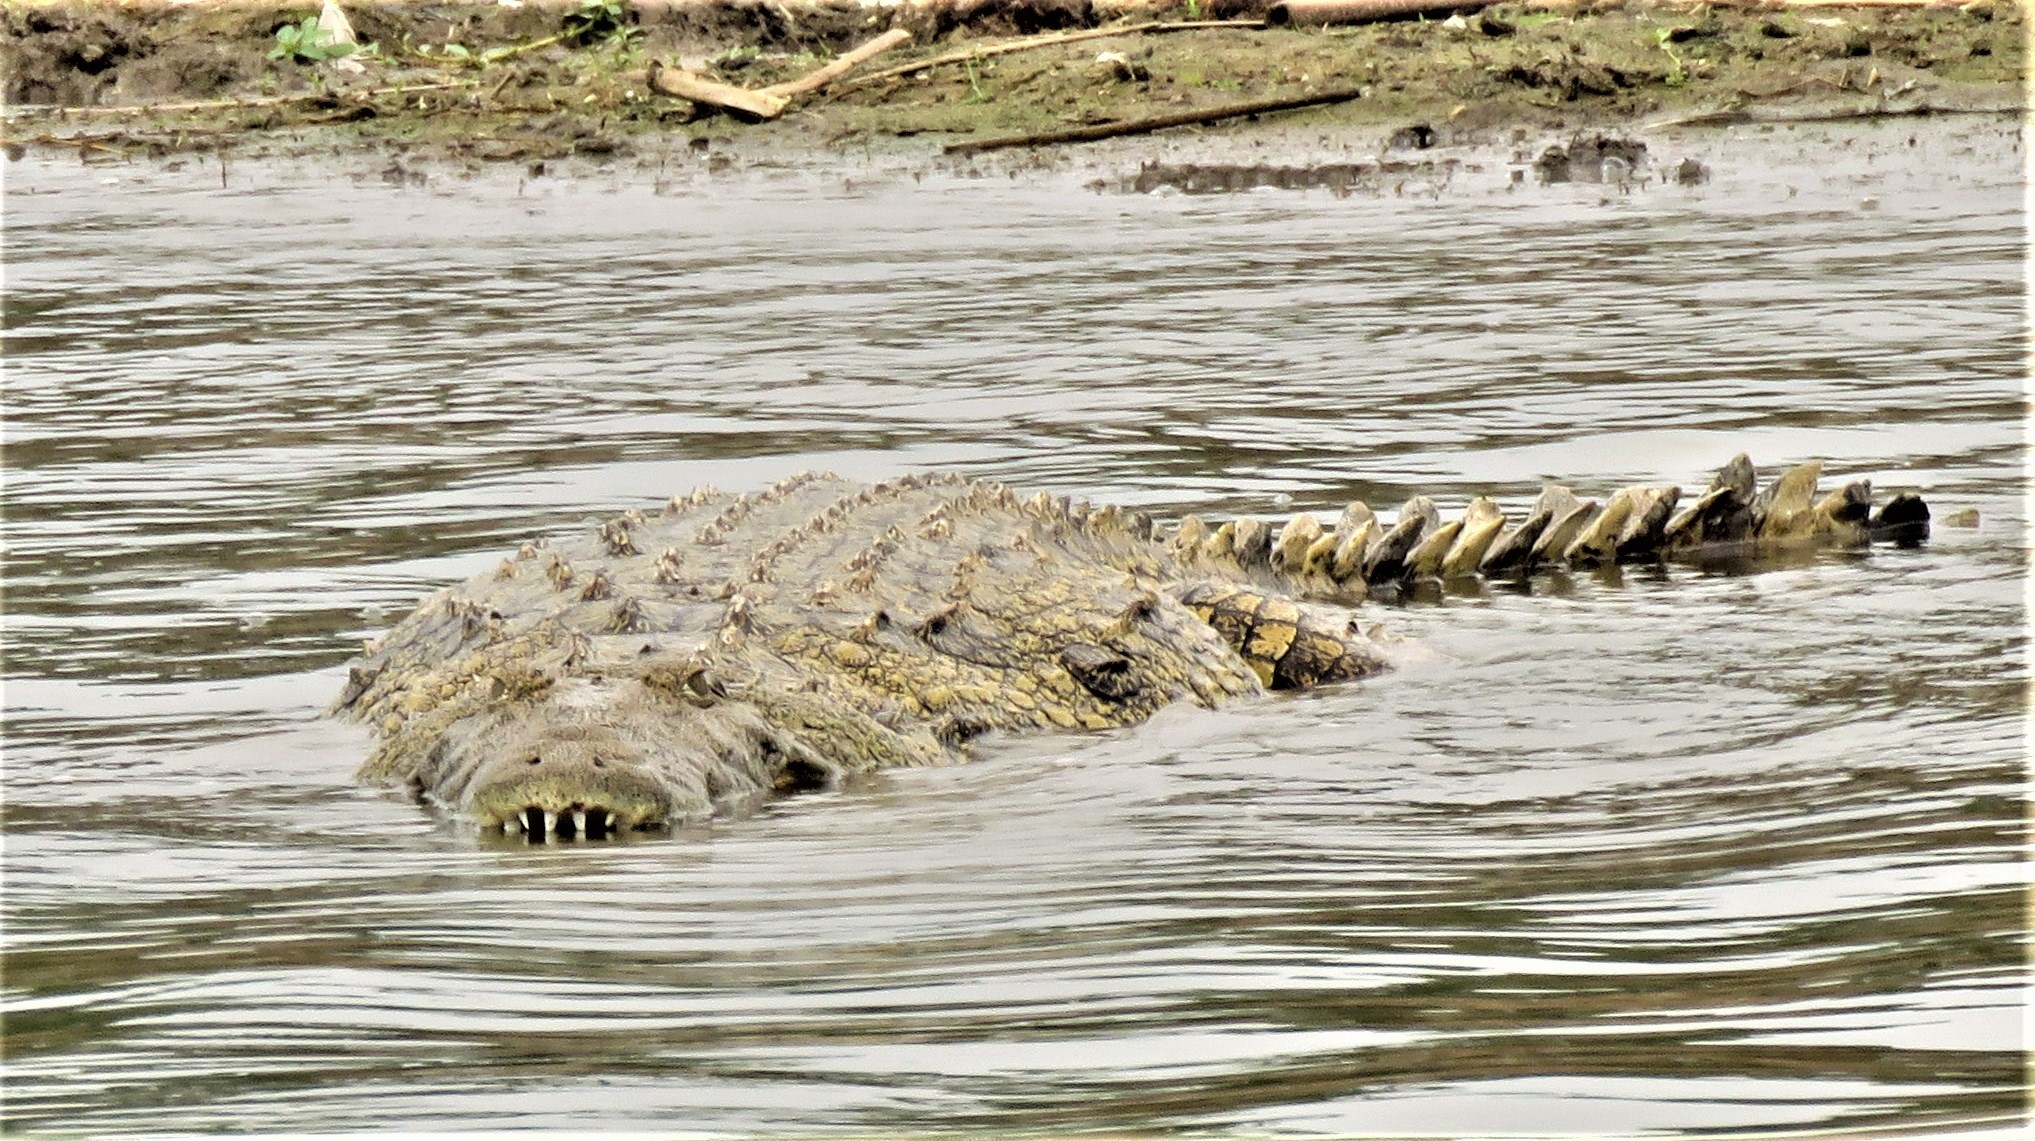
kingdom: Animalia
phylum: Chordata
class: Crocodylia
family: Crocodylidae
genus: Crocodylus
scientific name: Crocodylus niloticus
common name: Nile crocodile
